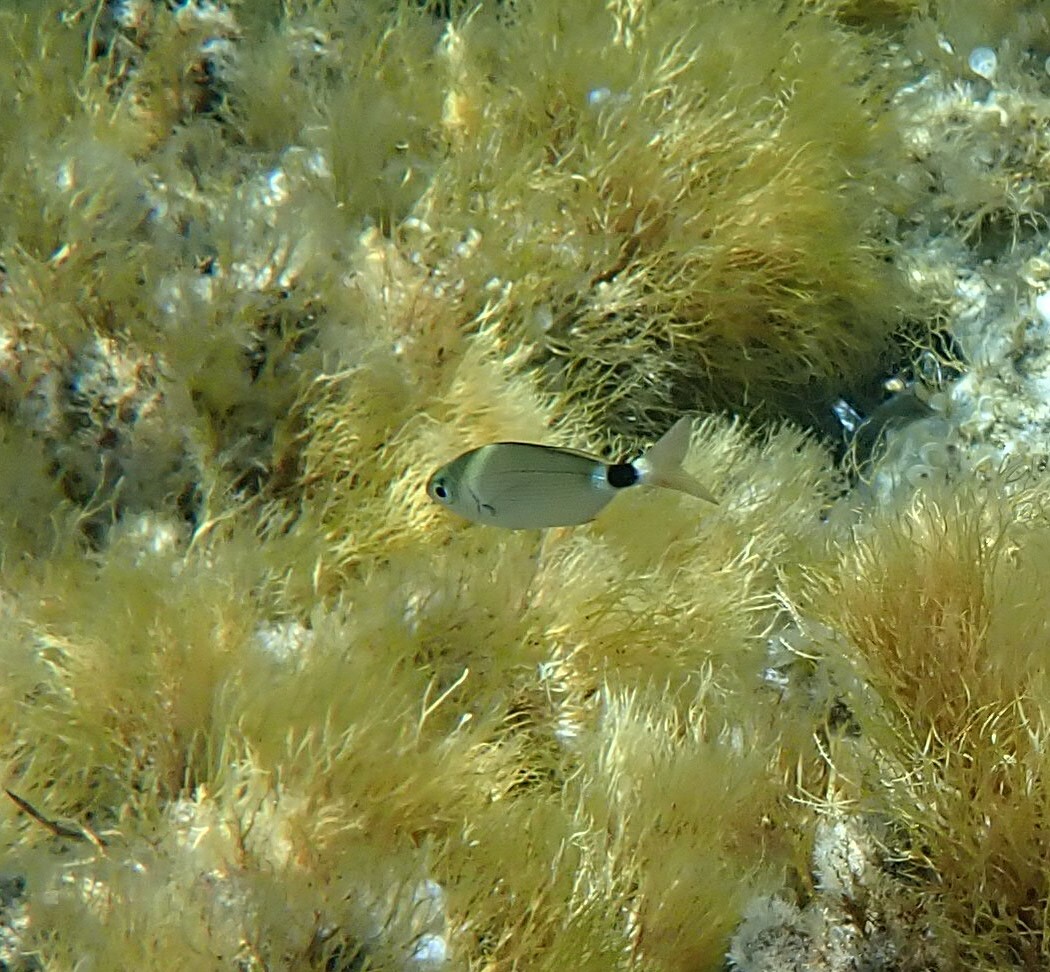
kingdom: Animalia
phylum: Chordata
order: Perciformes
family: Sparidae
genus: Oblada
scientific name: Oblada melanura
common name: Saddled seabream
